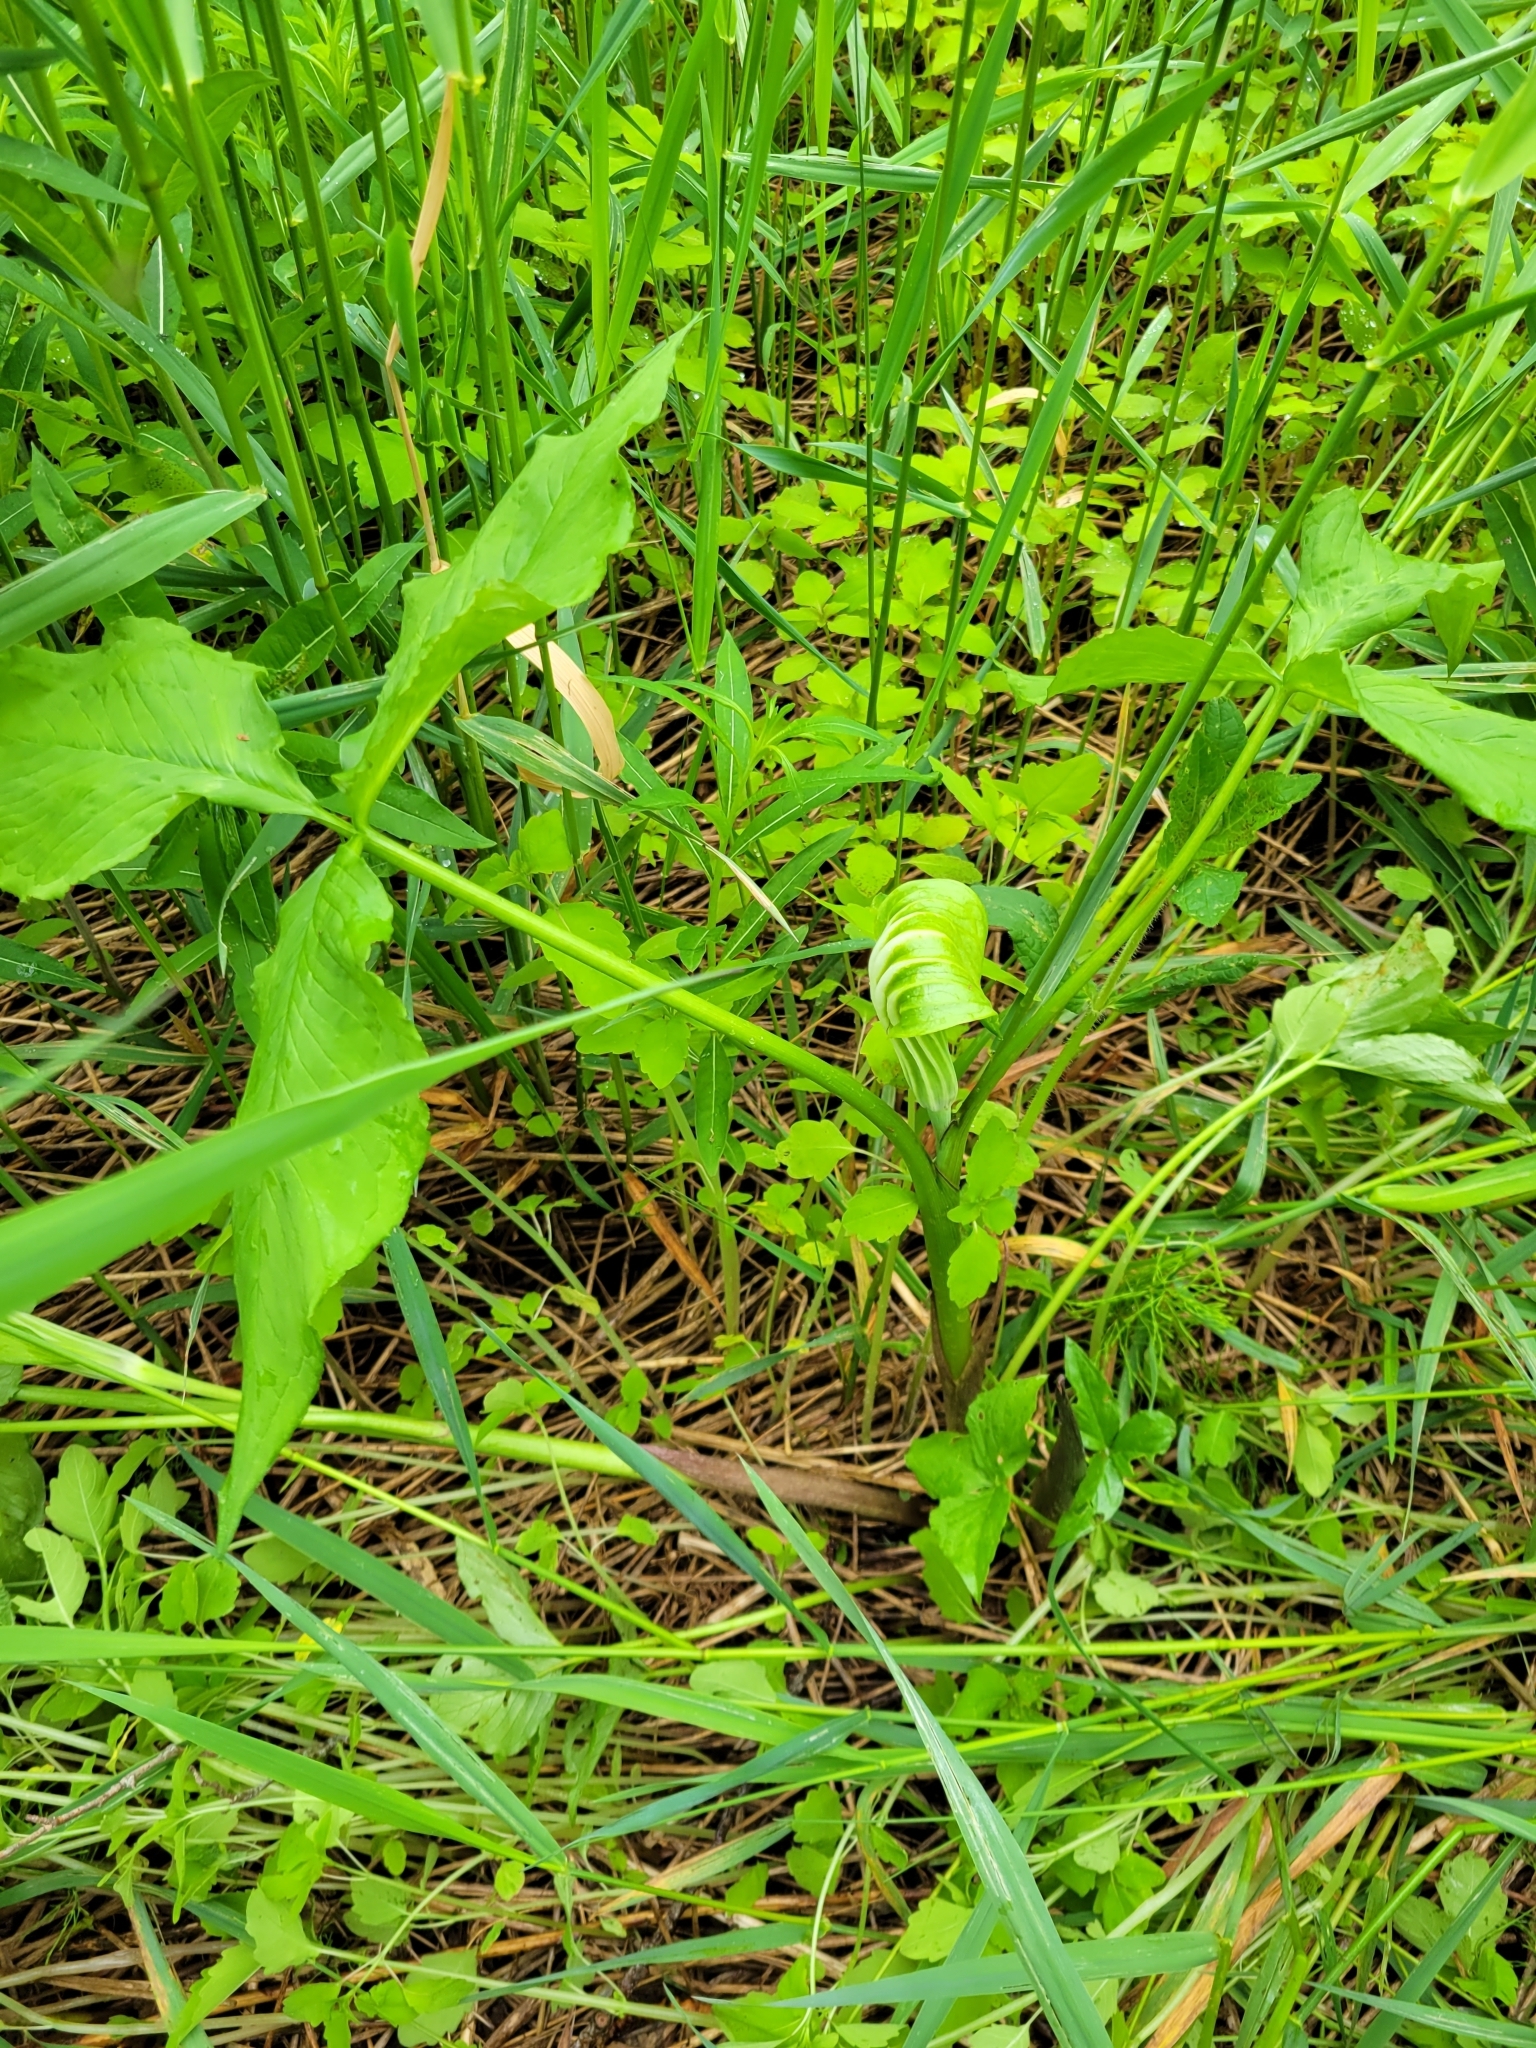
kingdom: Plantae
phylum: Tracheophyta
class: Liliopsida
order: Alismatales
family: Araceae
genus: Arisaema
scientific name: Arisaema stewardsonii
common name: Swamp jack-in-the-pulpit
